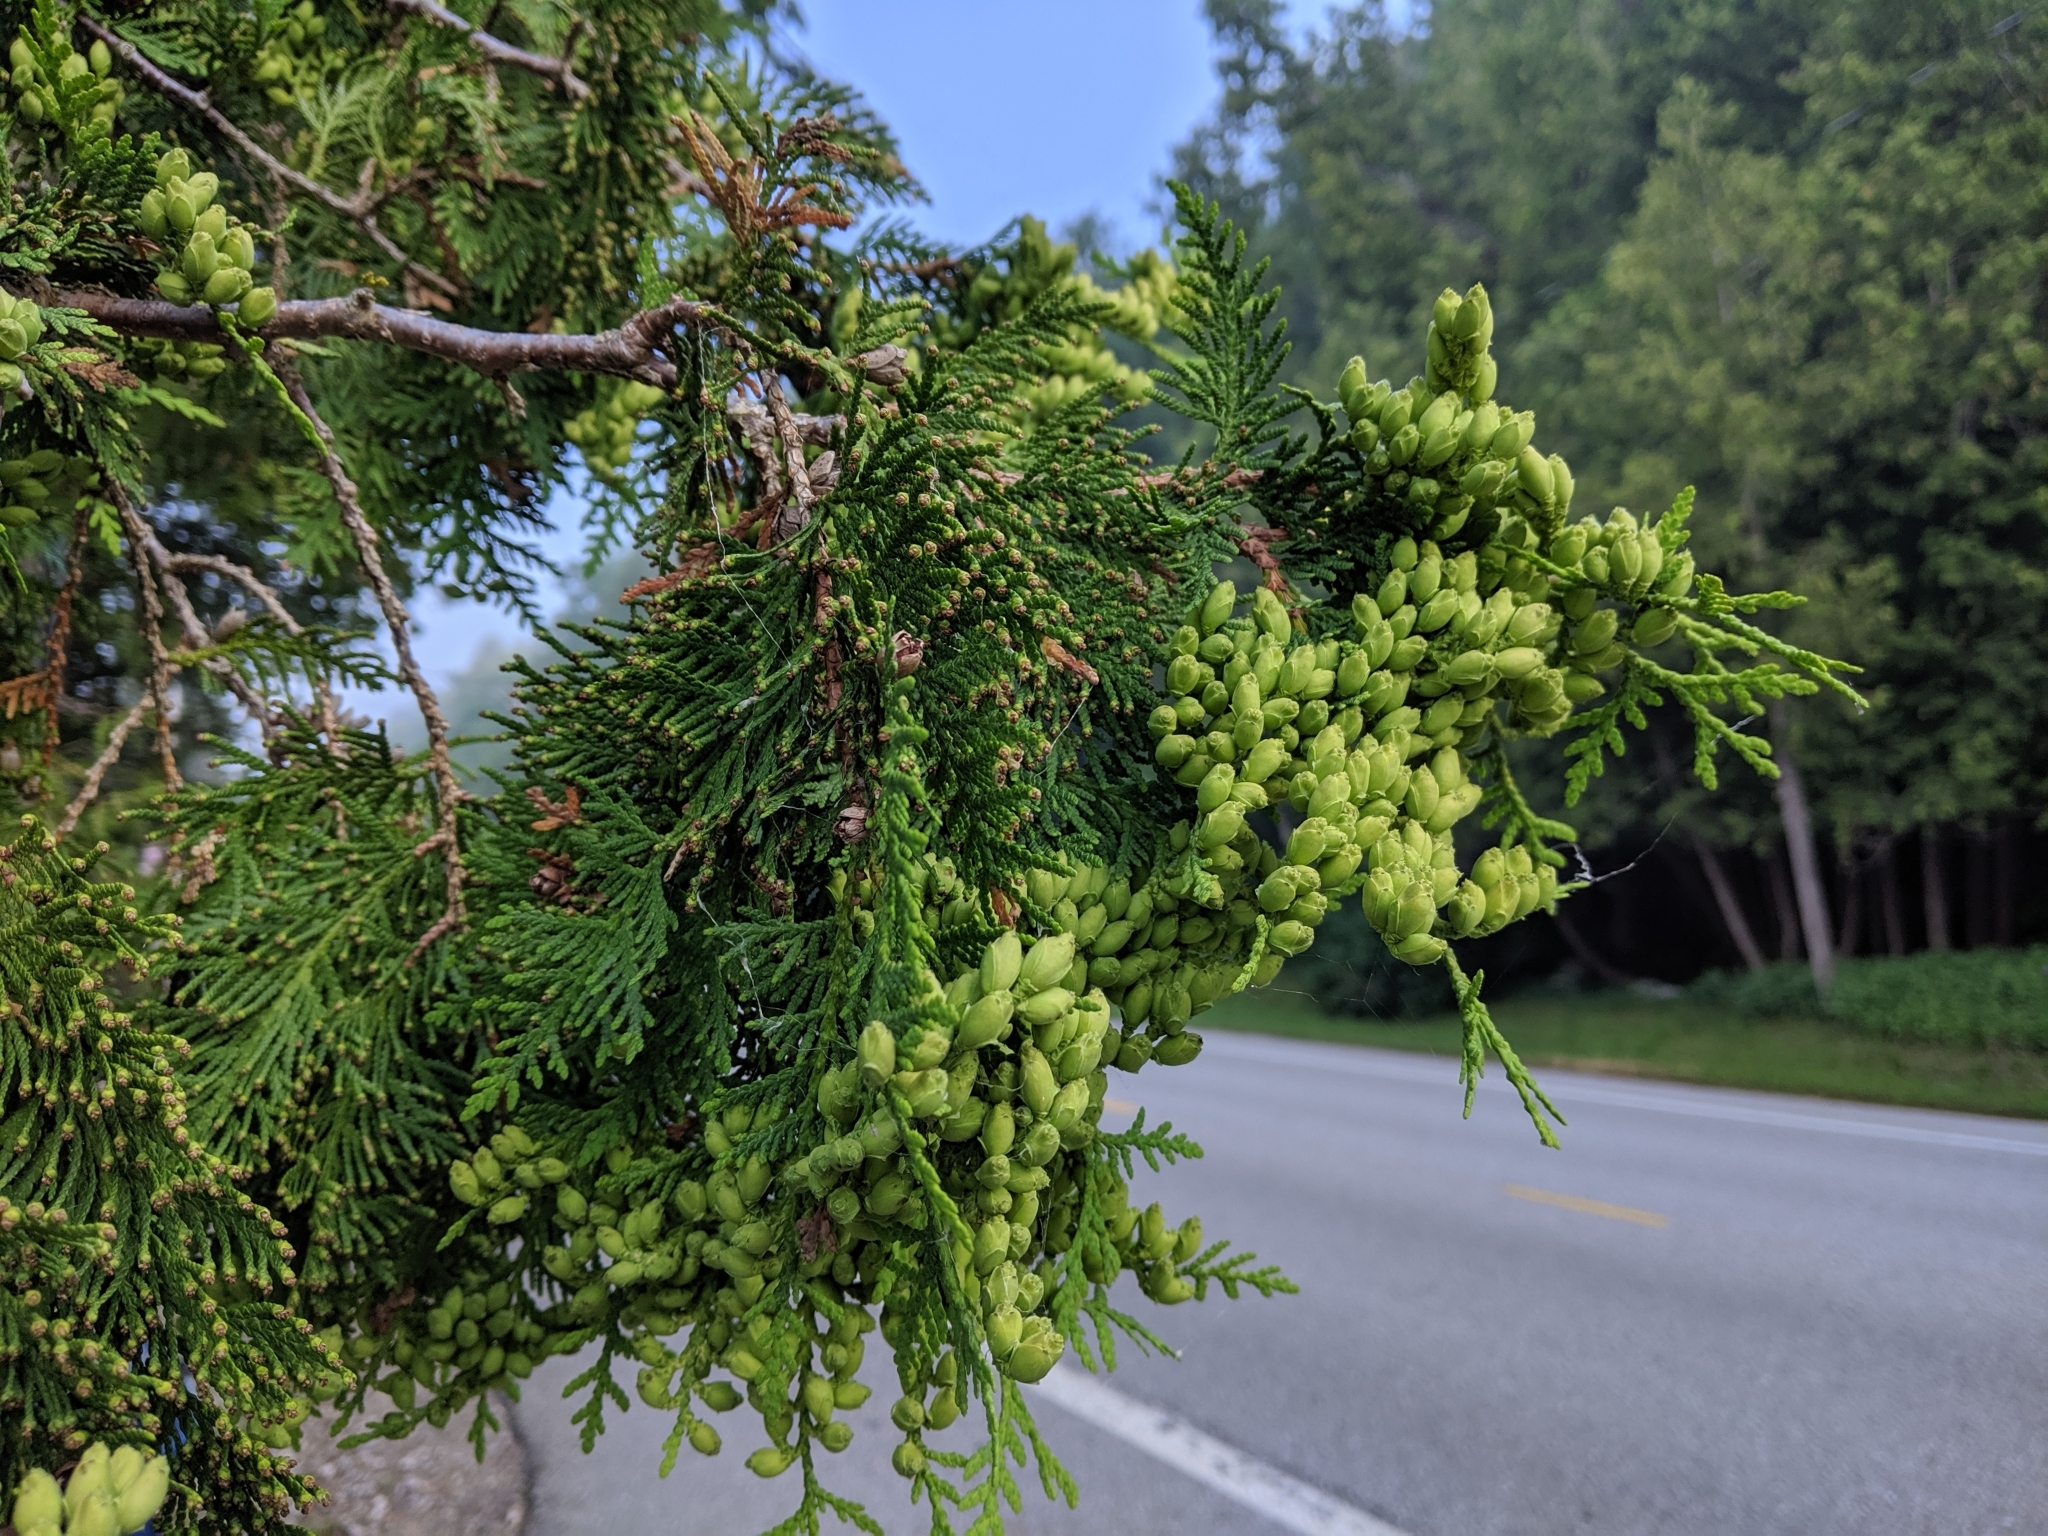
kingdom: Plantae
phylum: Tracheophyta
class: Pinopsida
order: Pinales
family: Cupressaceae
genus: Thuja
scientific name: Thuja occidentalis
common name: Northern white-cedar
